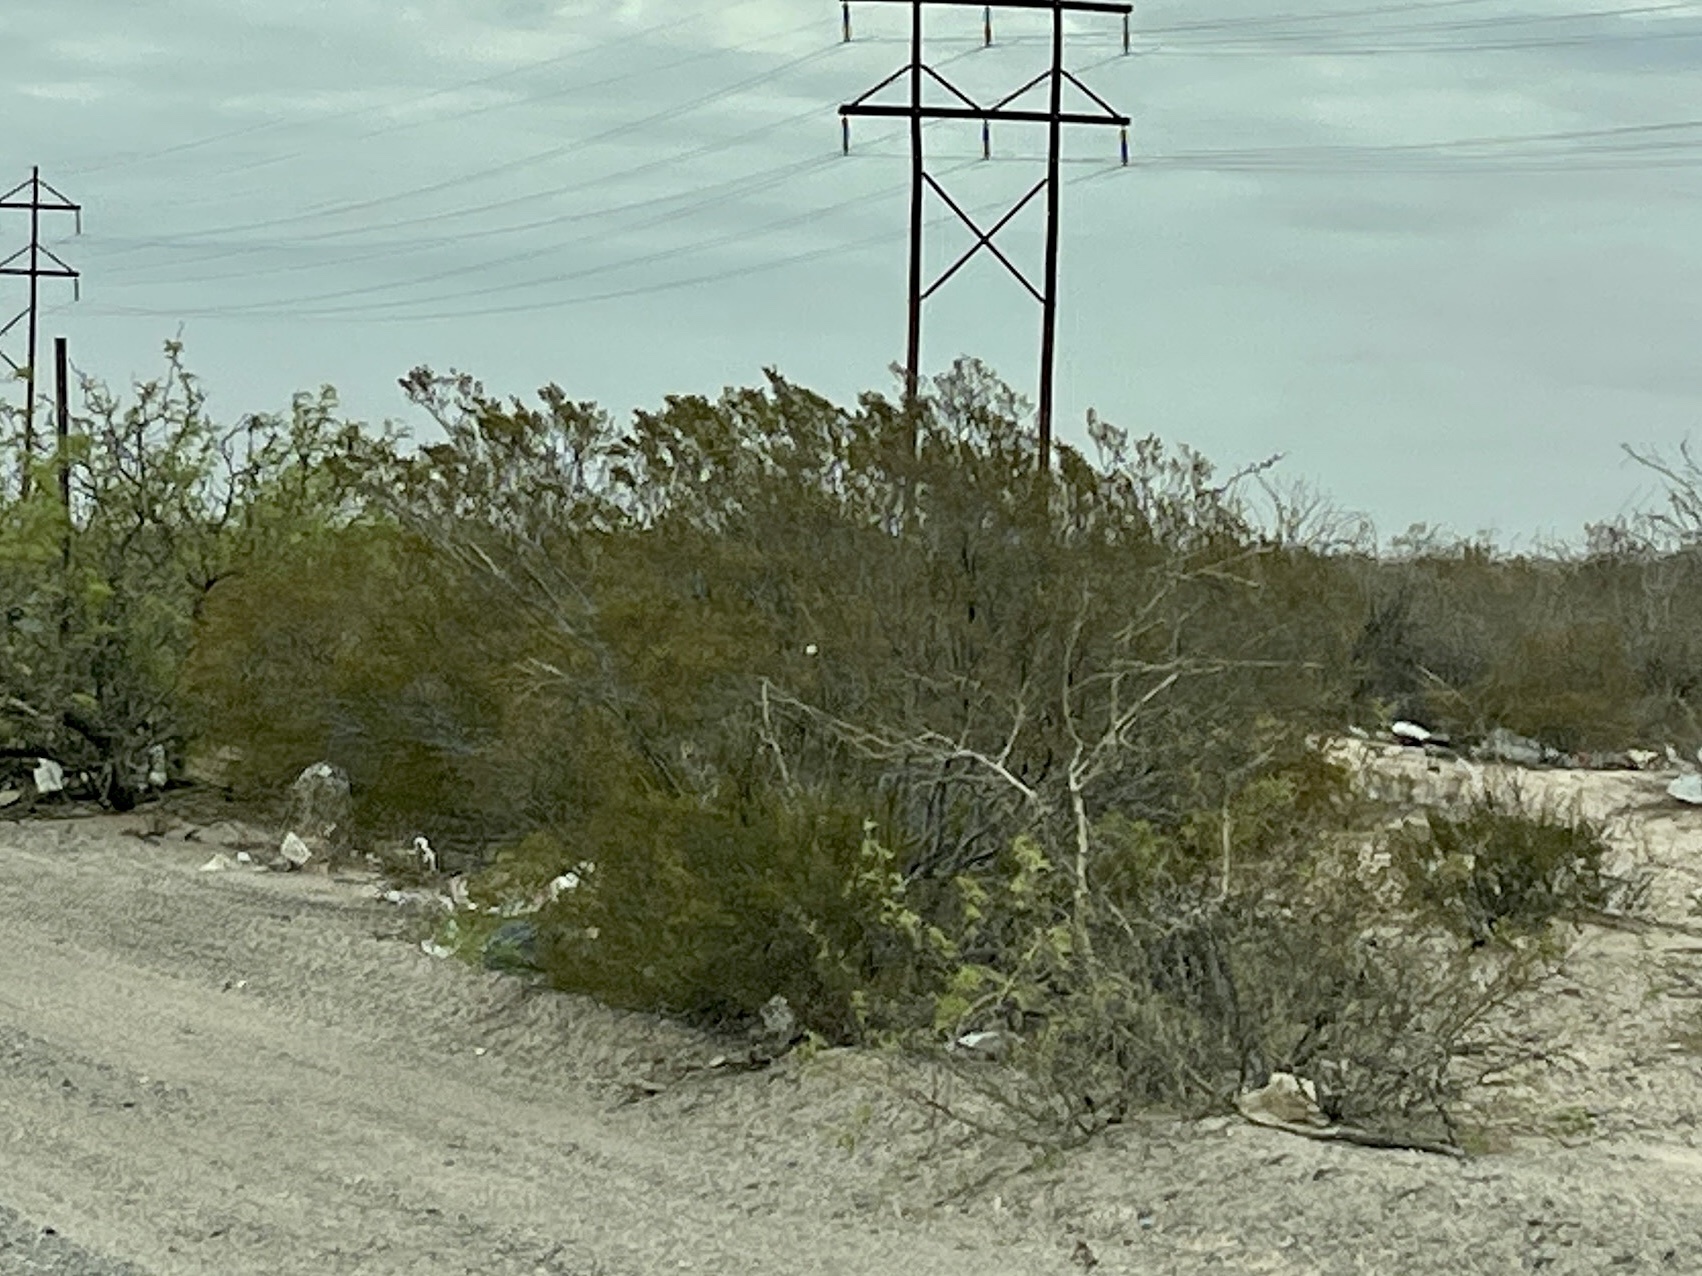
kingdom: Plantae
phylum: Tracheophyta
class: Magnoliopsida
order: Zygophyllales
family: Zygophyllaceae
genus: Larrea
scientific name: Larrea tridentata
